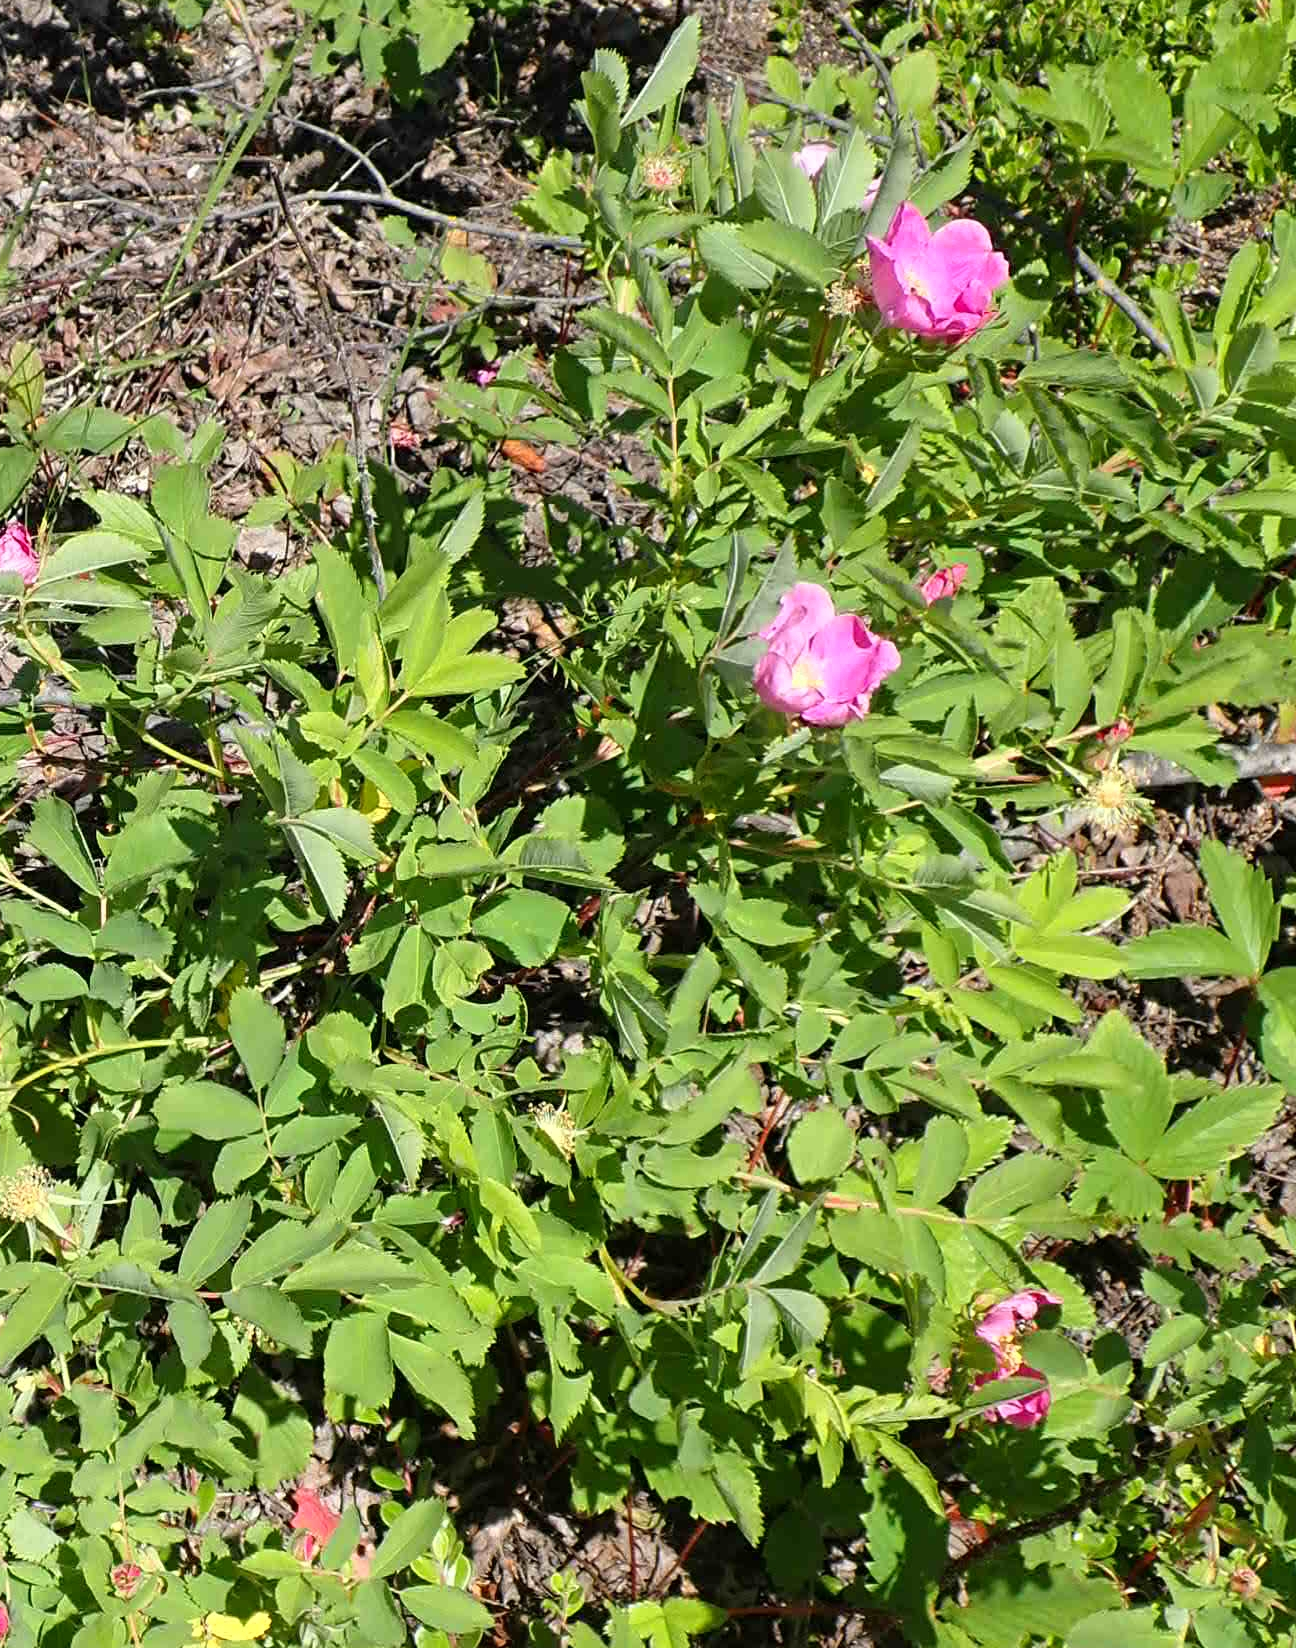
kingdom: Plantae
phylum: Tracheophyta
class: Magnoliopsida
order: Rosales
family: Rosaceae
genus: Rosa
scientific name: Rosa woodsii
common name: Woods's rose
